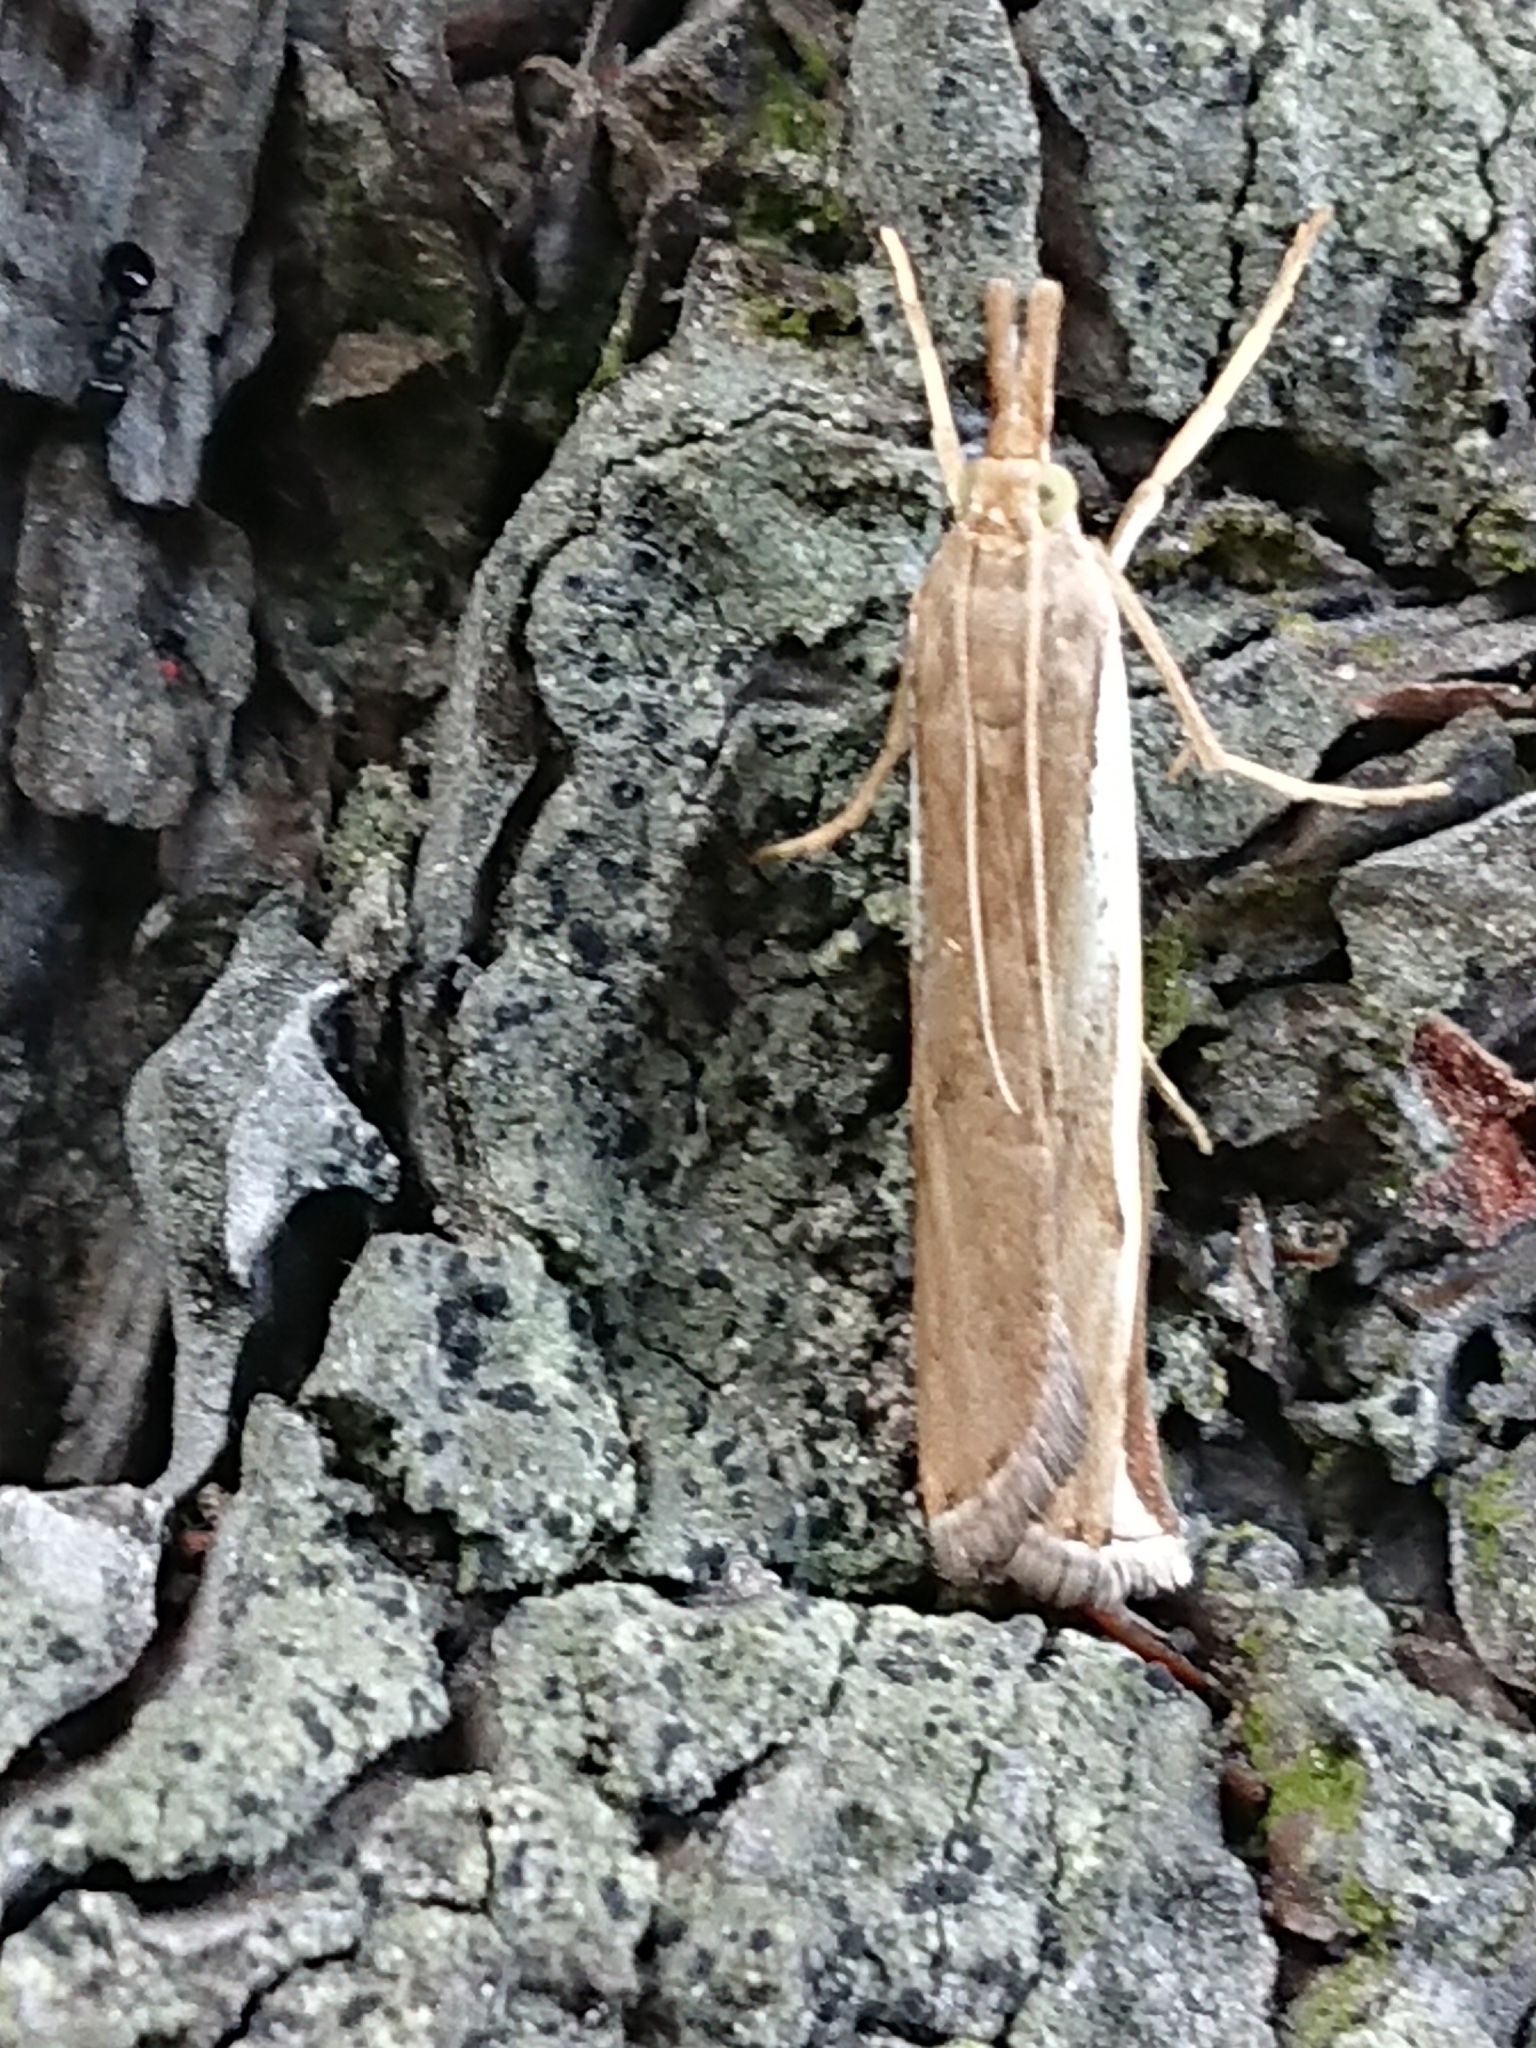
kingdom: Animalia
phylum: Arthropoda
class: Insecta
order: Lepidoptera
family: Crambidae
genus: Orocrambus
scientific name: Orocrambus flexuosellus
